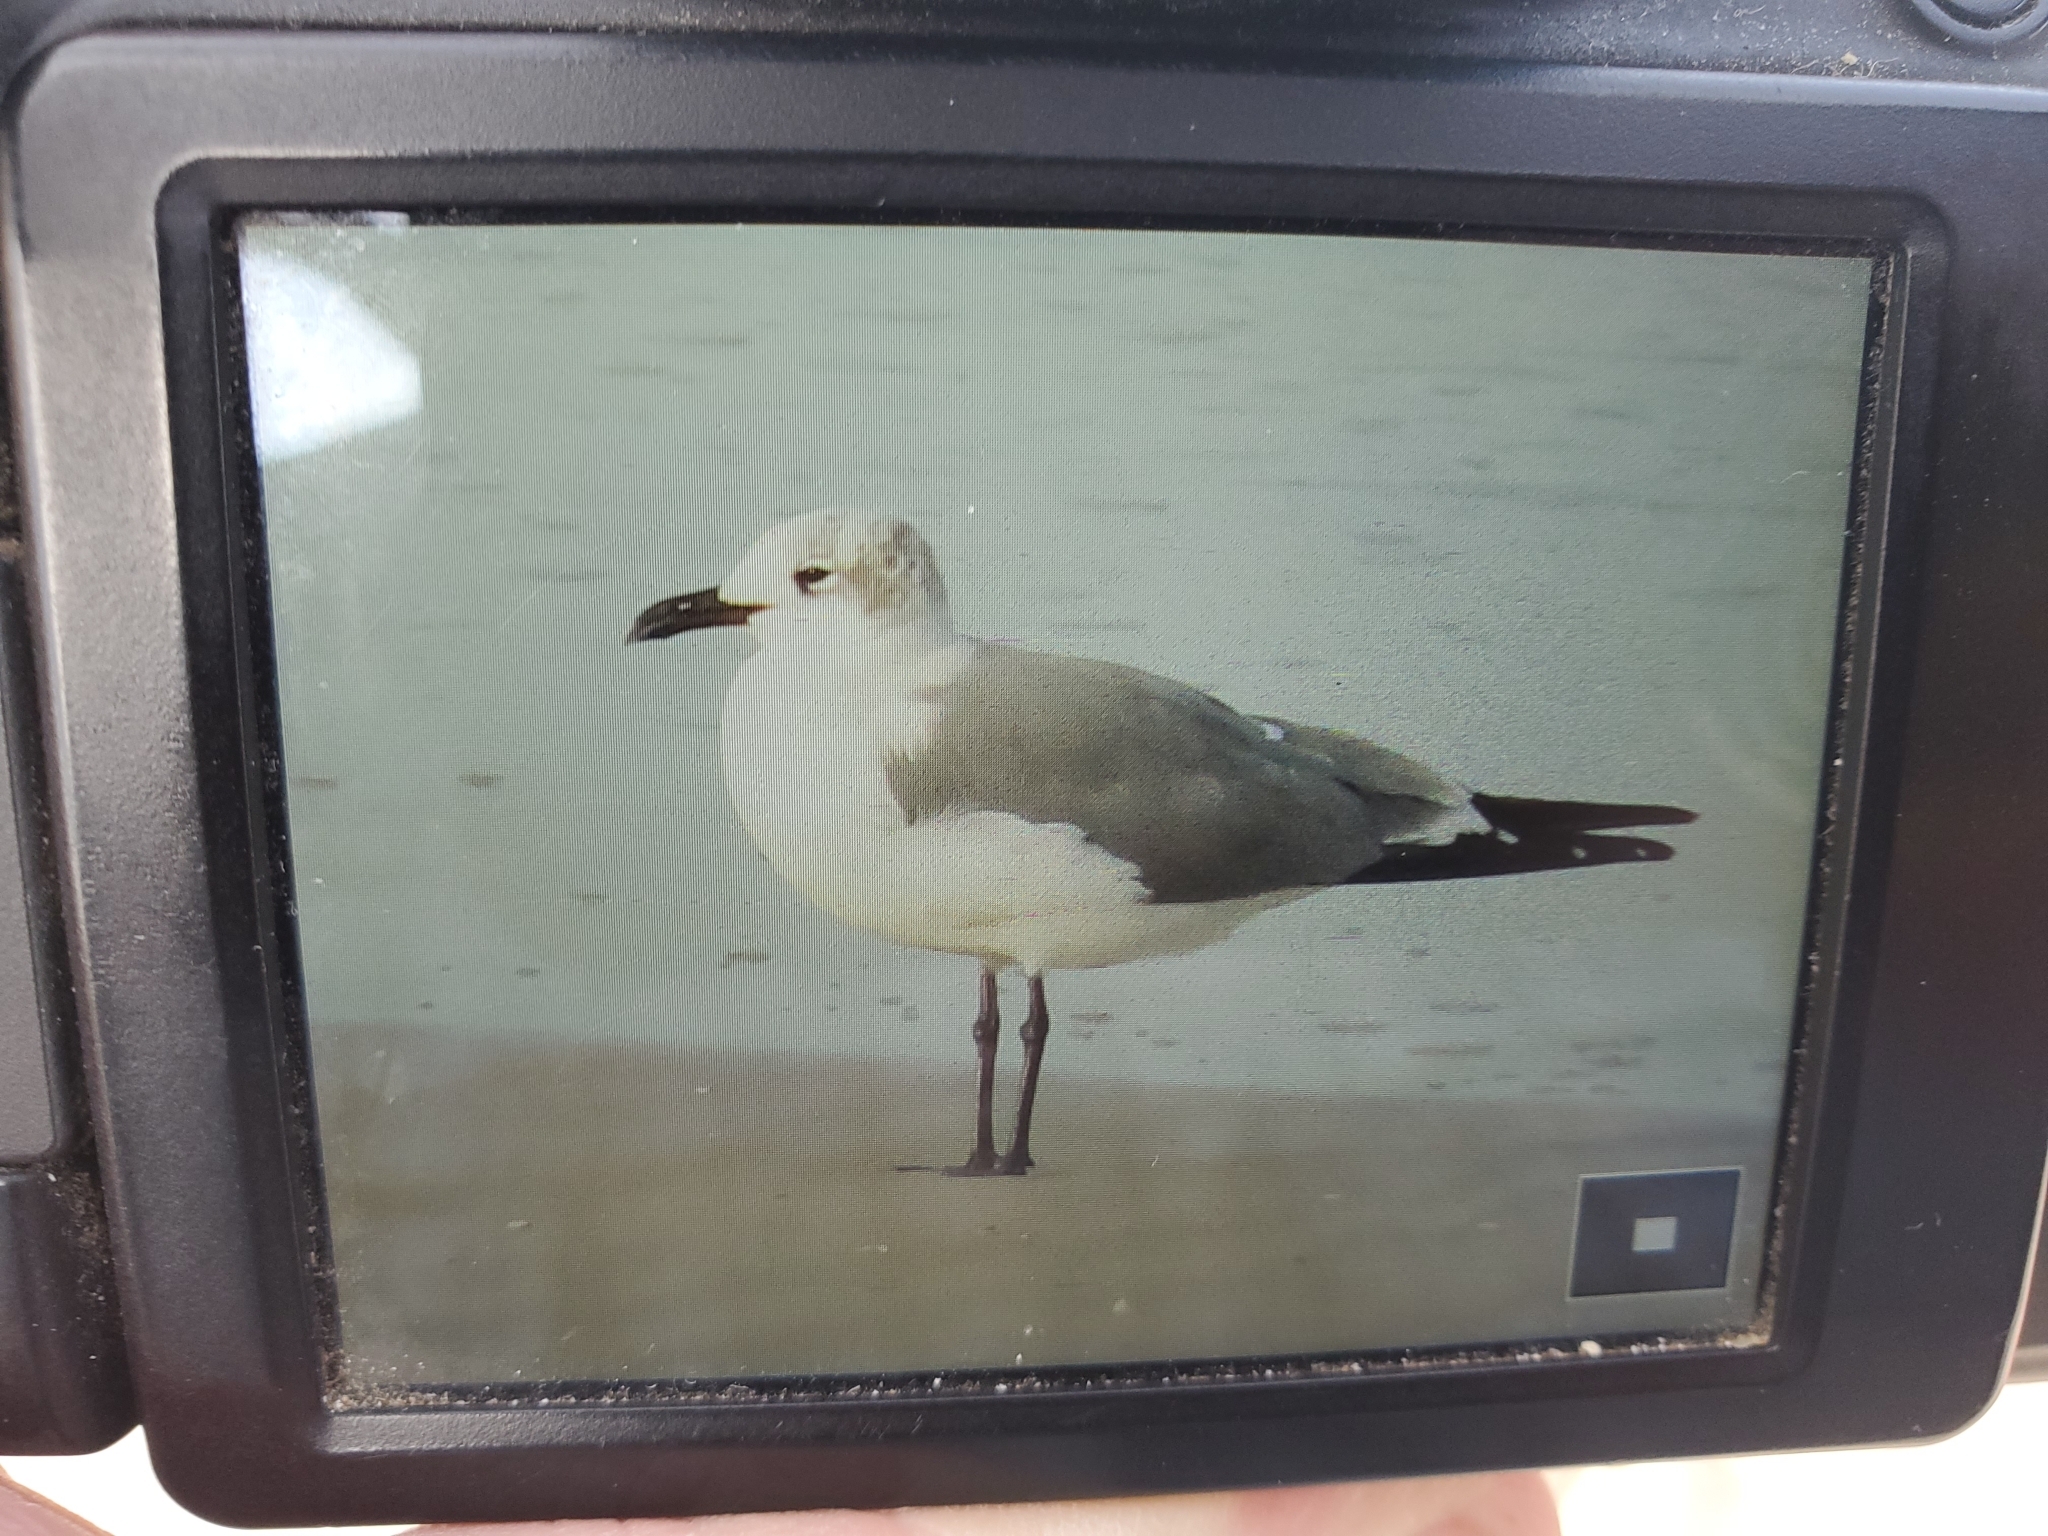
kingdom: Animalia
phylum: Chordata
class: Aves
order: Charadriiformes
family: Laridae
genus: Leucophaeus
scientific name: Leucophaeus atricilla
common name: Laughing gull
